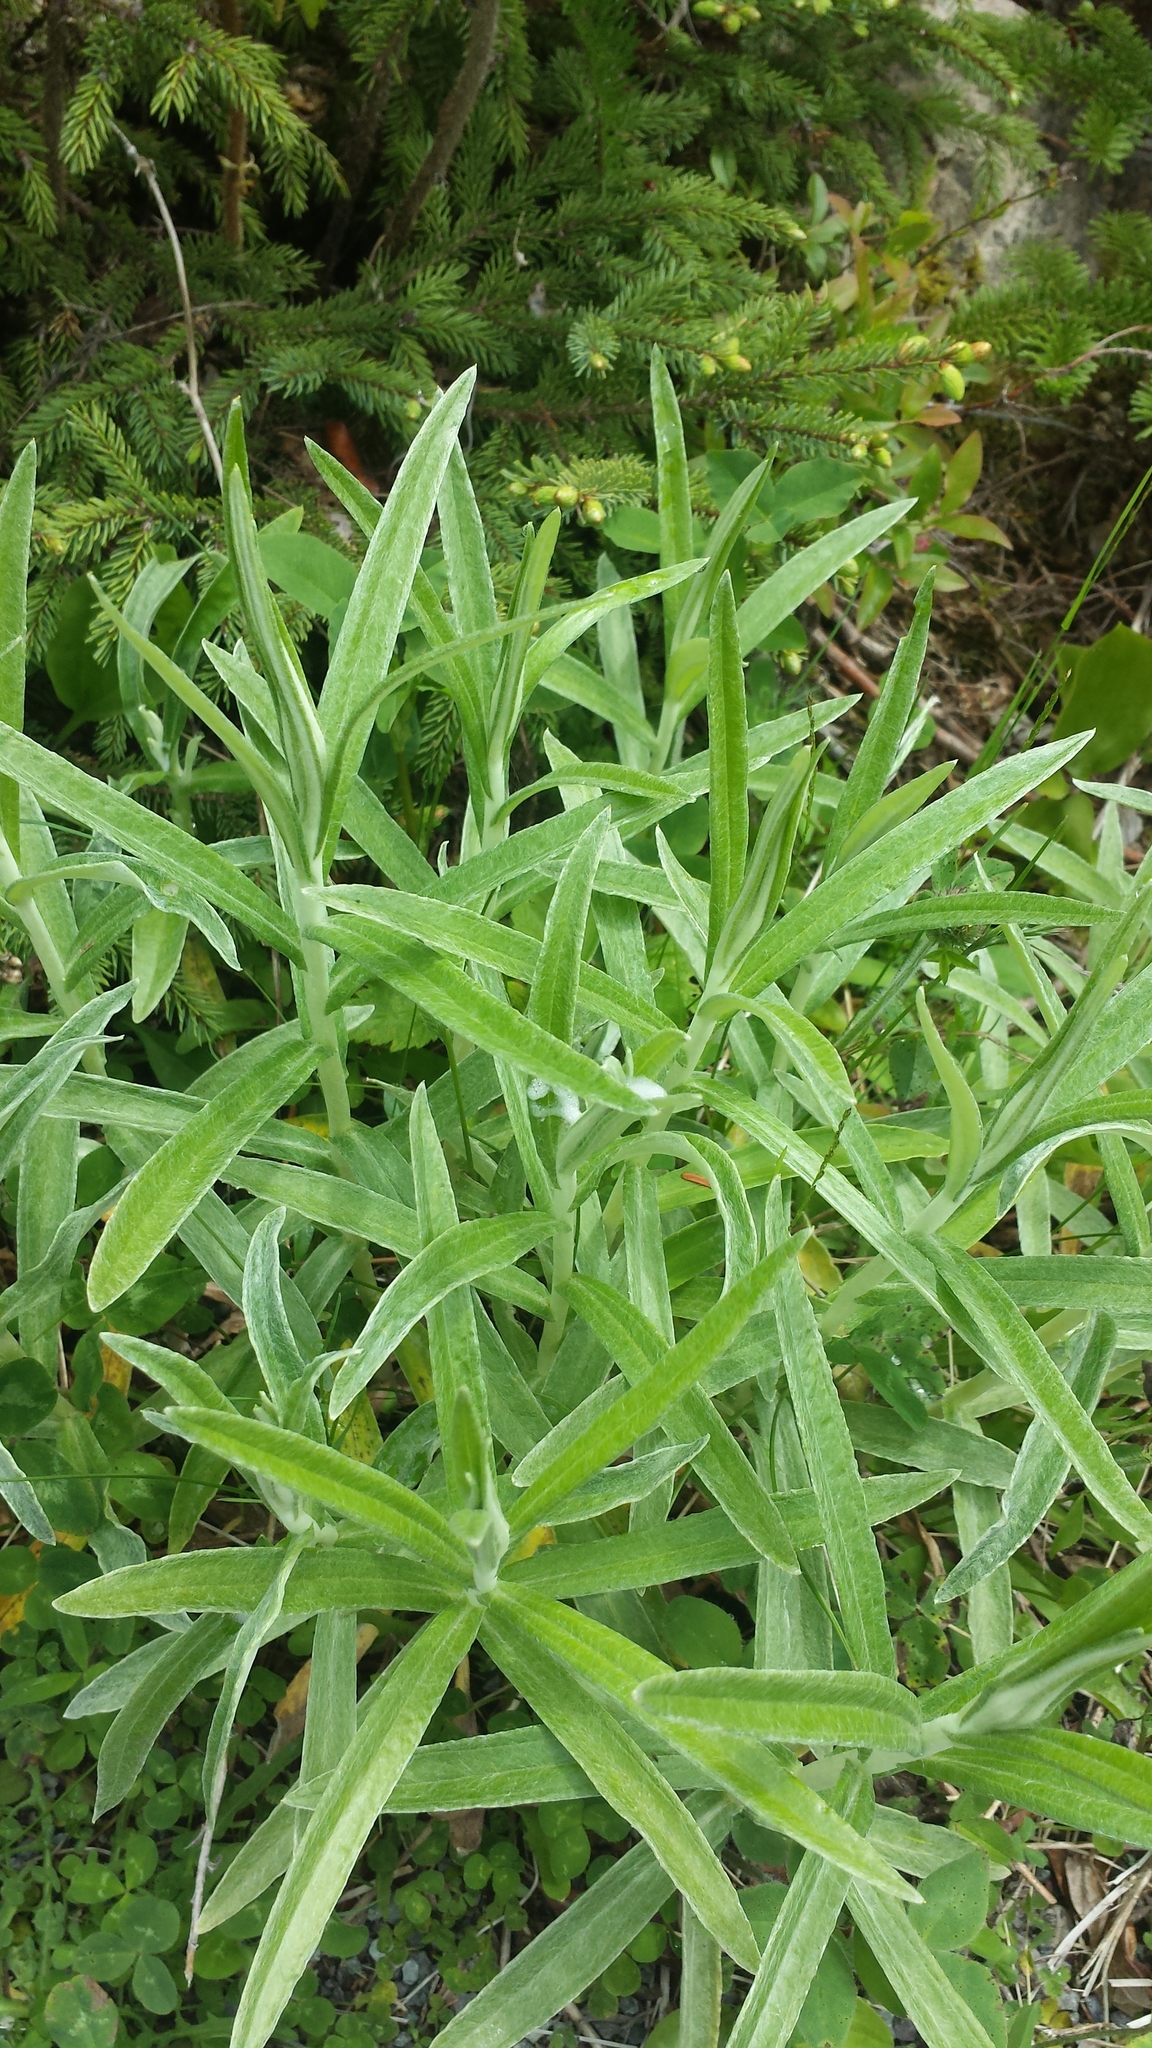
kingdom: Plantae
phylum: Tracheophyta
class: Magnoliopsida
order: Asterales
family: Asteraceae
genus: Anaphalis
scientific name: Anaphalis margaritacea
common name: Pearly everlasting
